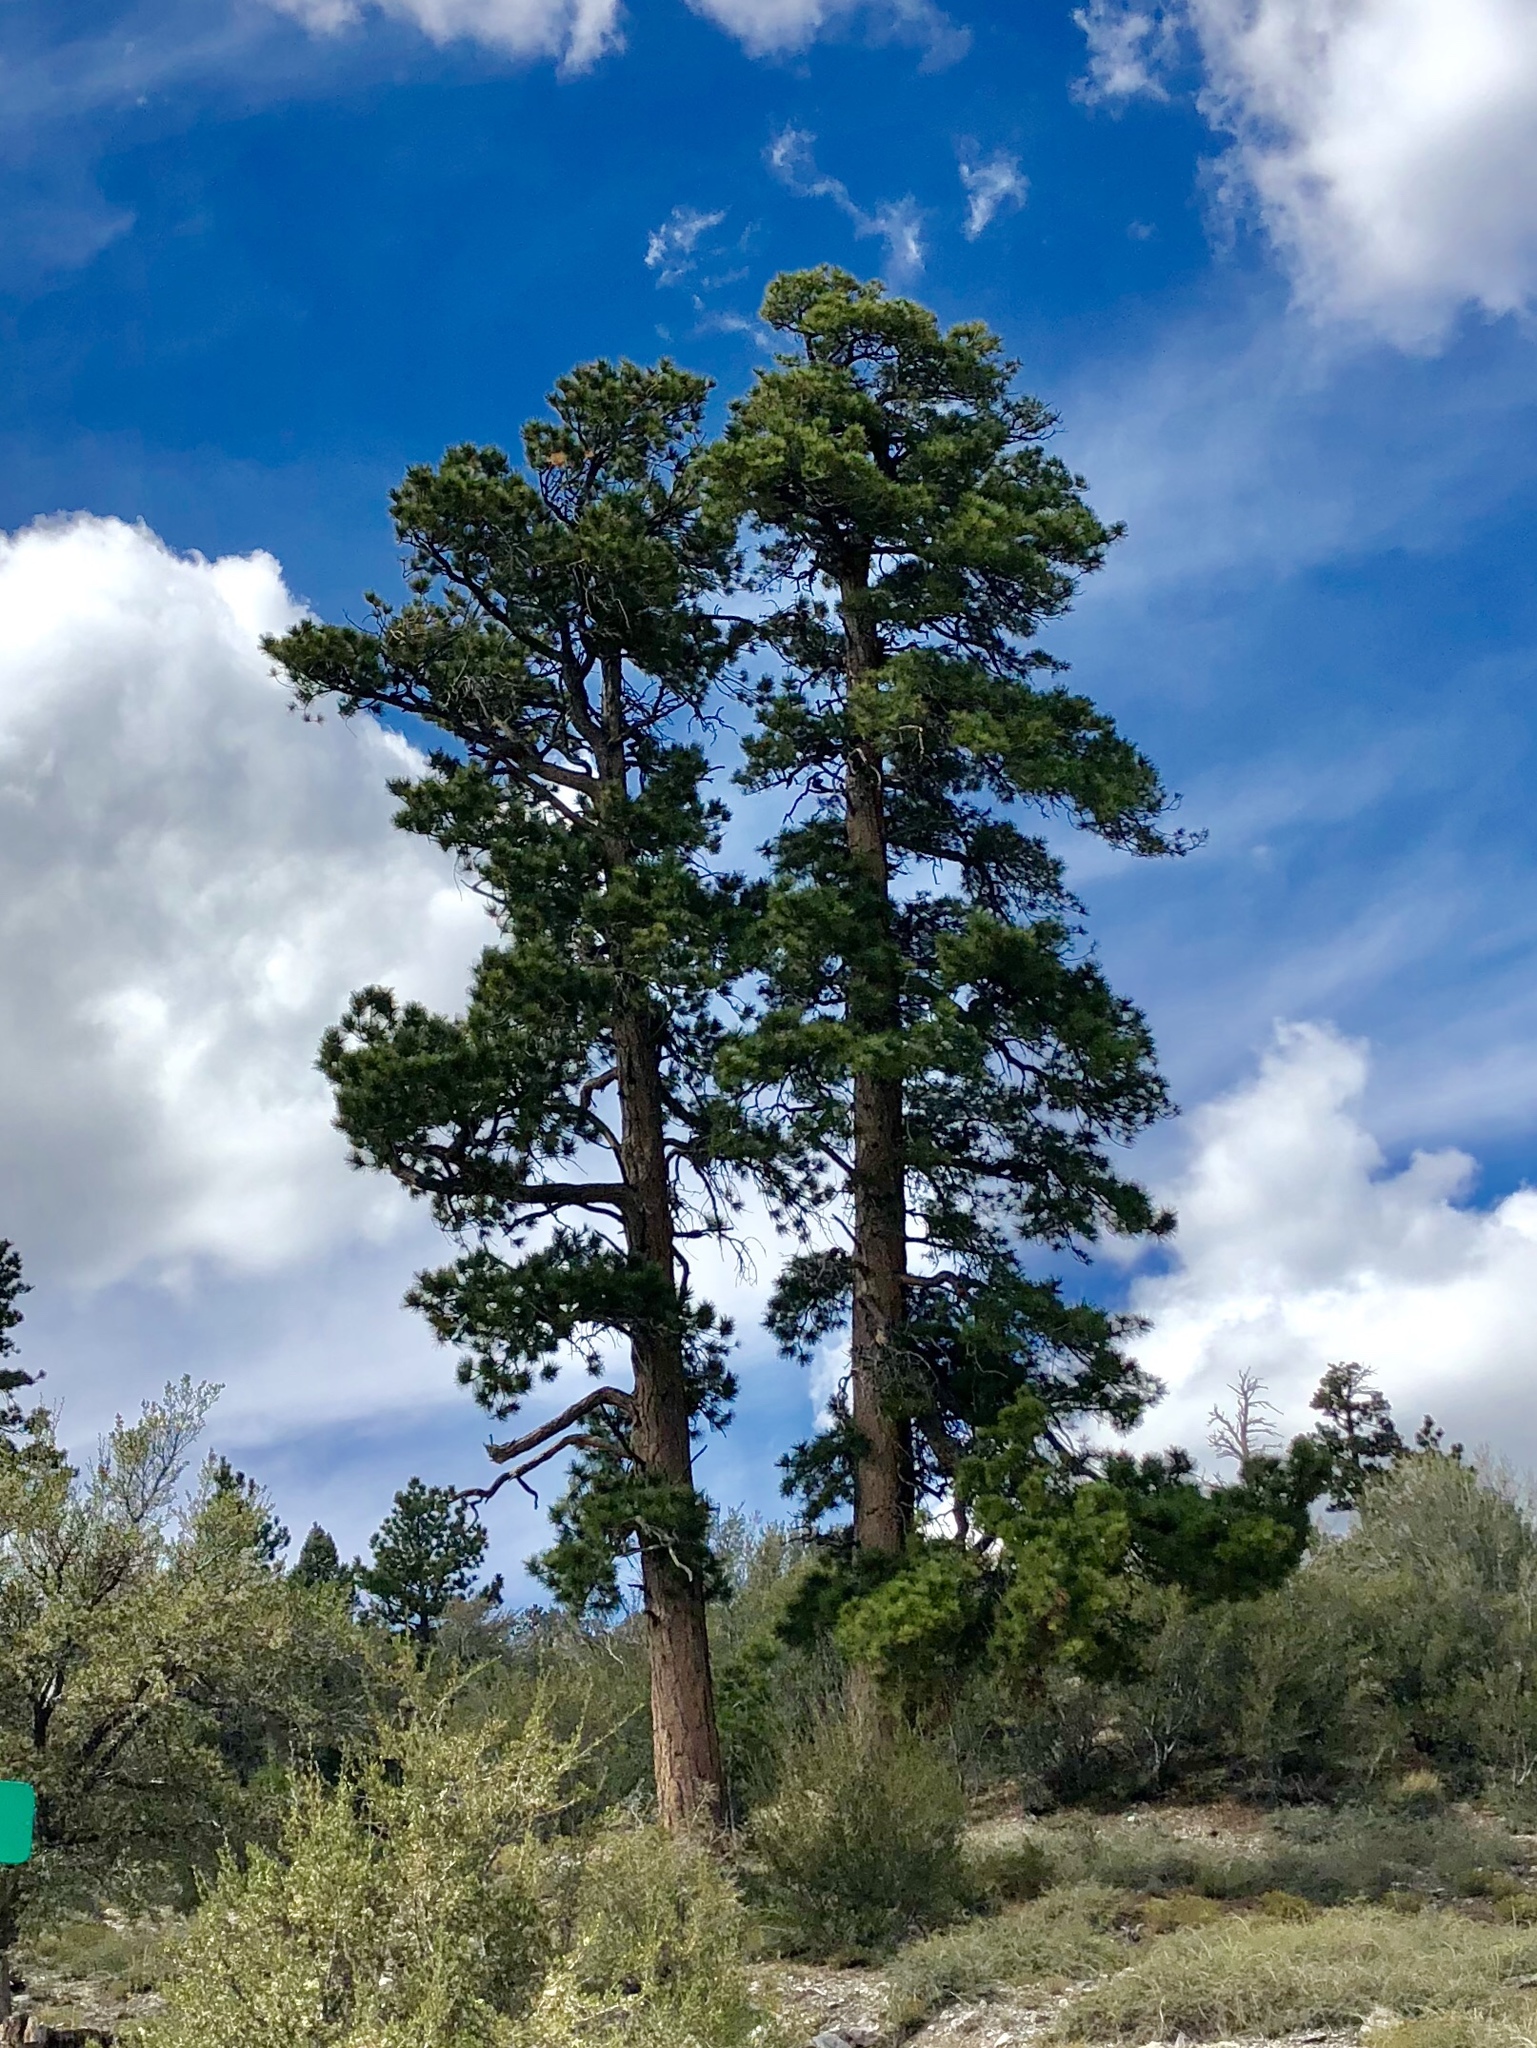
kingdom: Plantae
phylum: Tracheophyta
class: Pinopsida
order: Pinales
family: Pinaceae
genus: Pinus
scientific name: Pinus ponderosa
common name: Western yellow-pine
